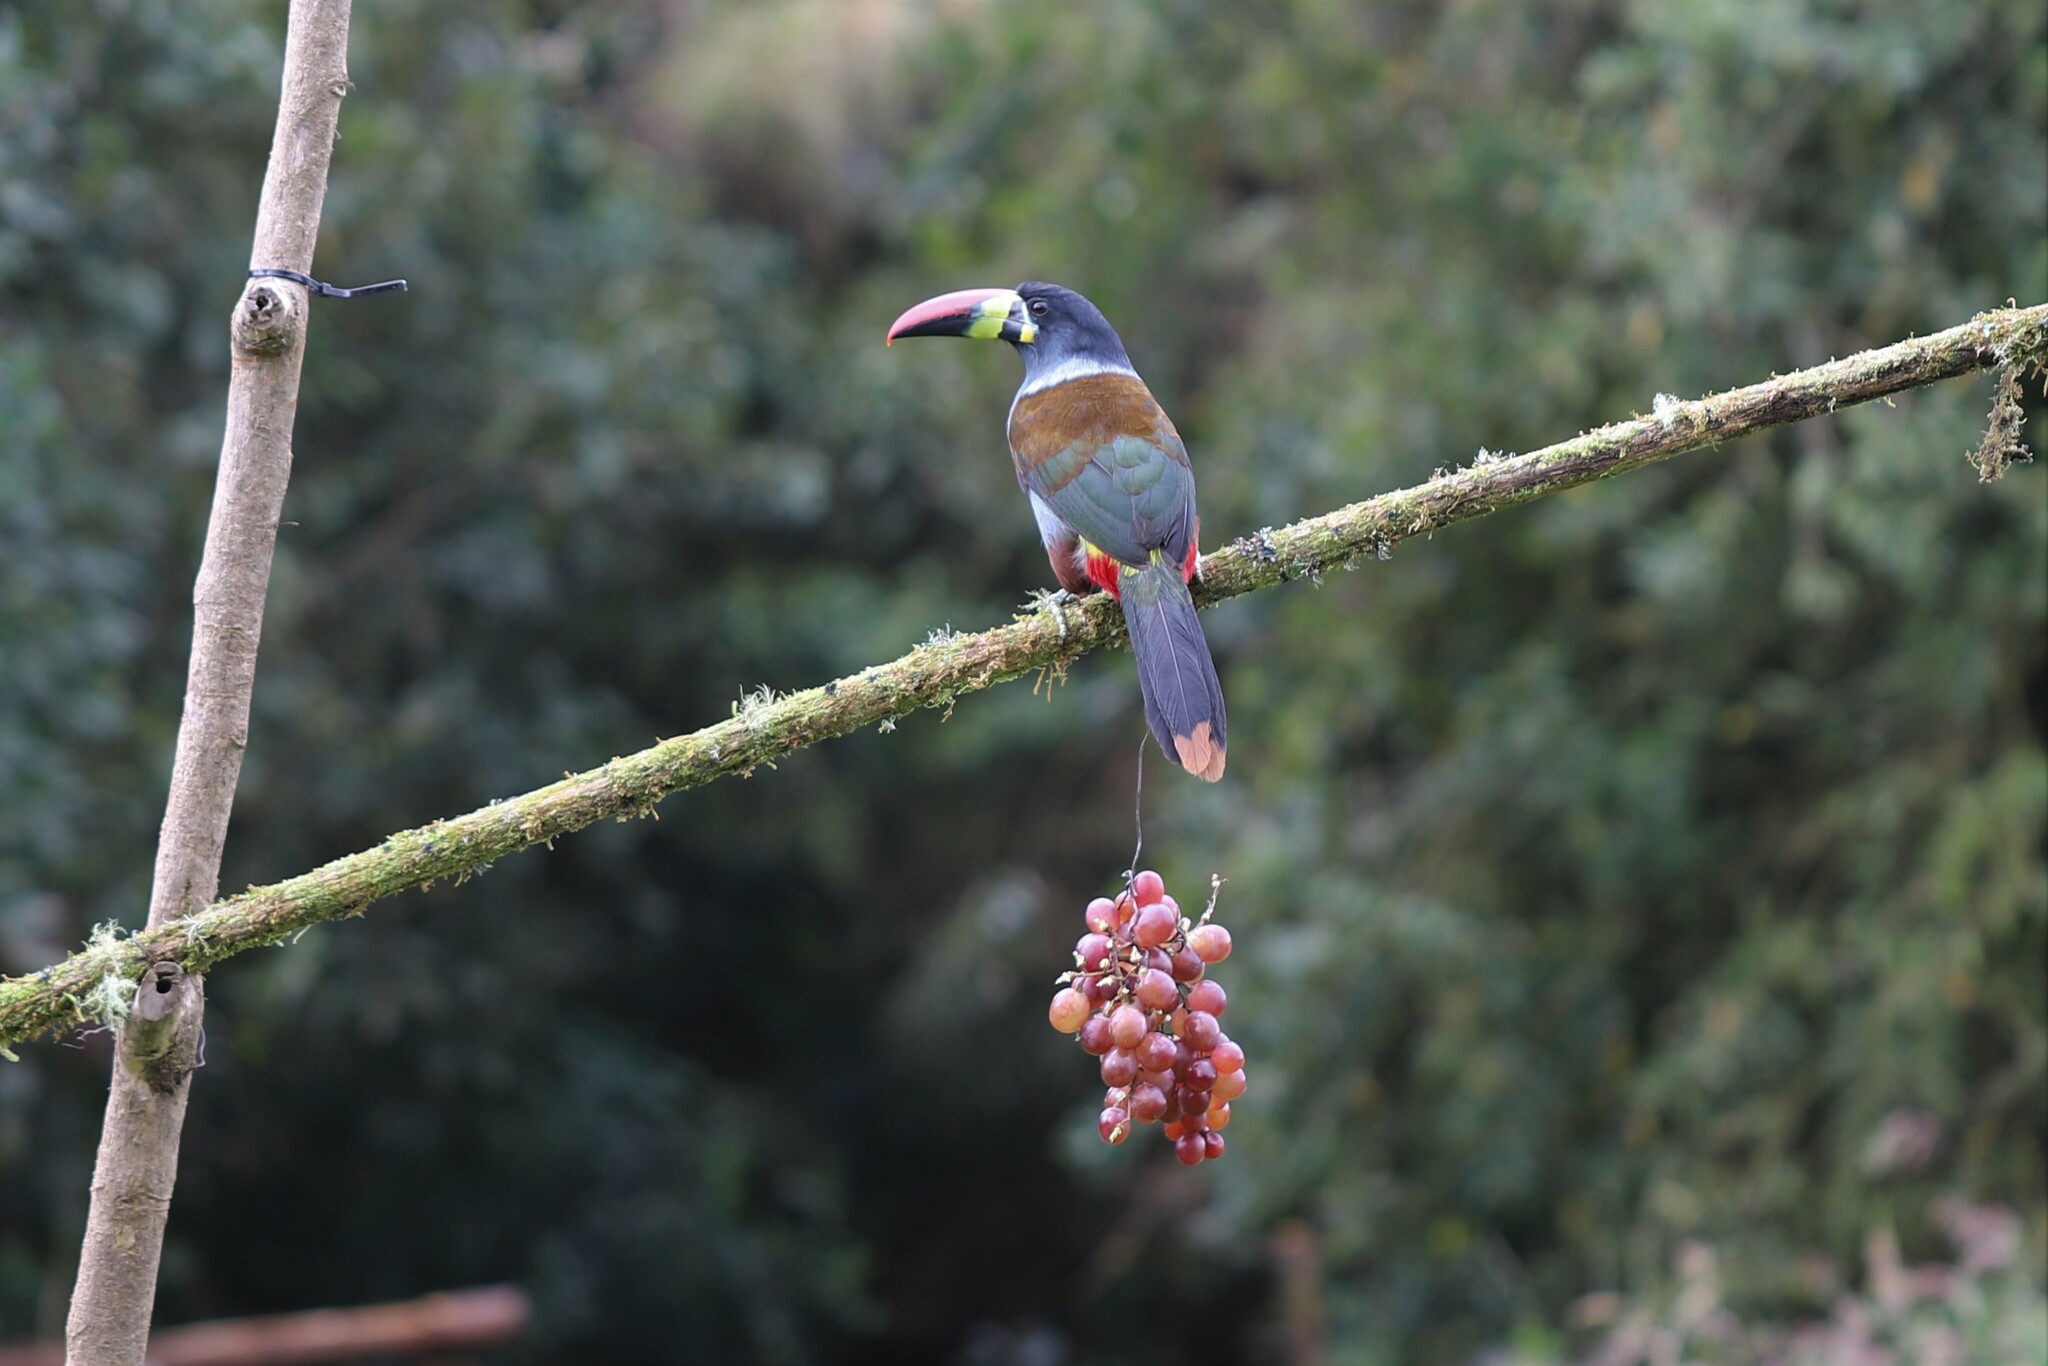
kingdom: Animalia
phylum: Chordata
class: Aves
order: Piciformes
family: Ramphastidae
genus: Andigena
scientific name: Andigena hypoglauca
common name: Grey-breasted mountain toucan
